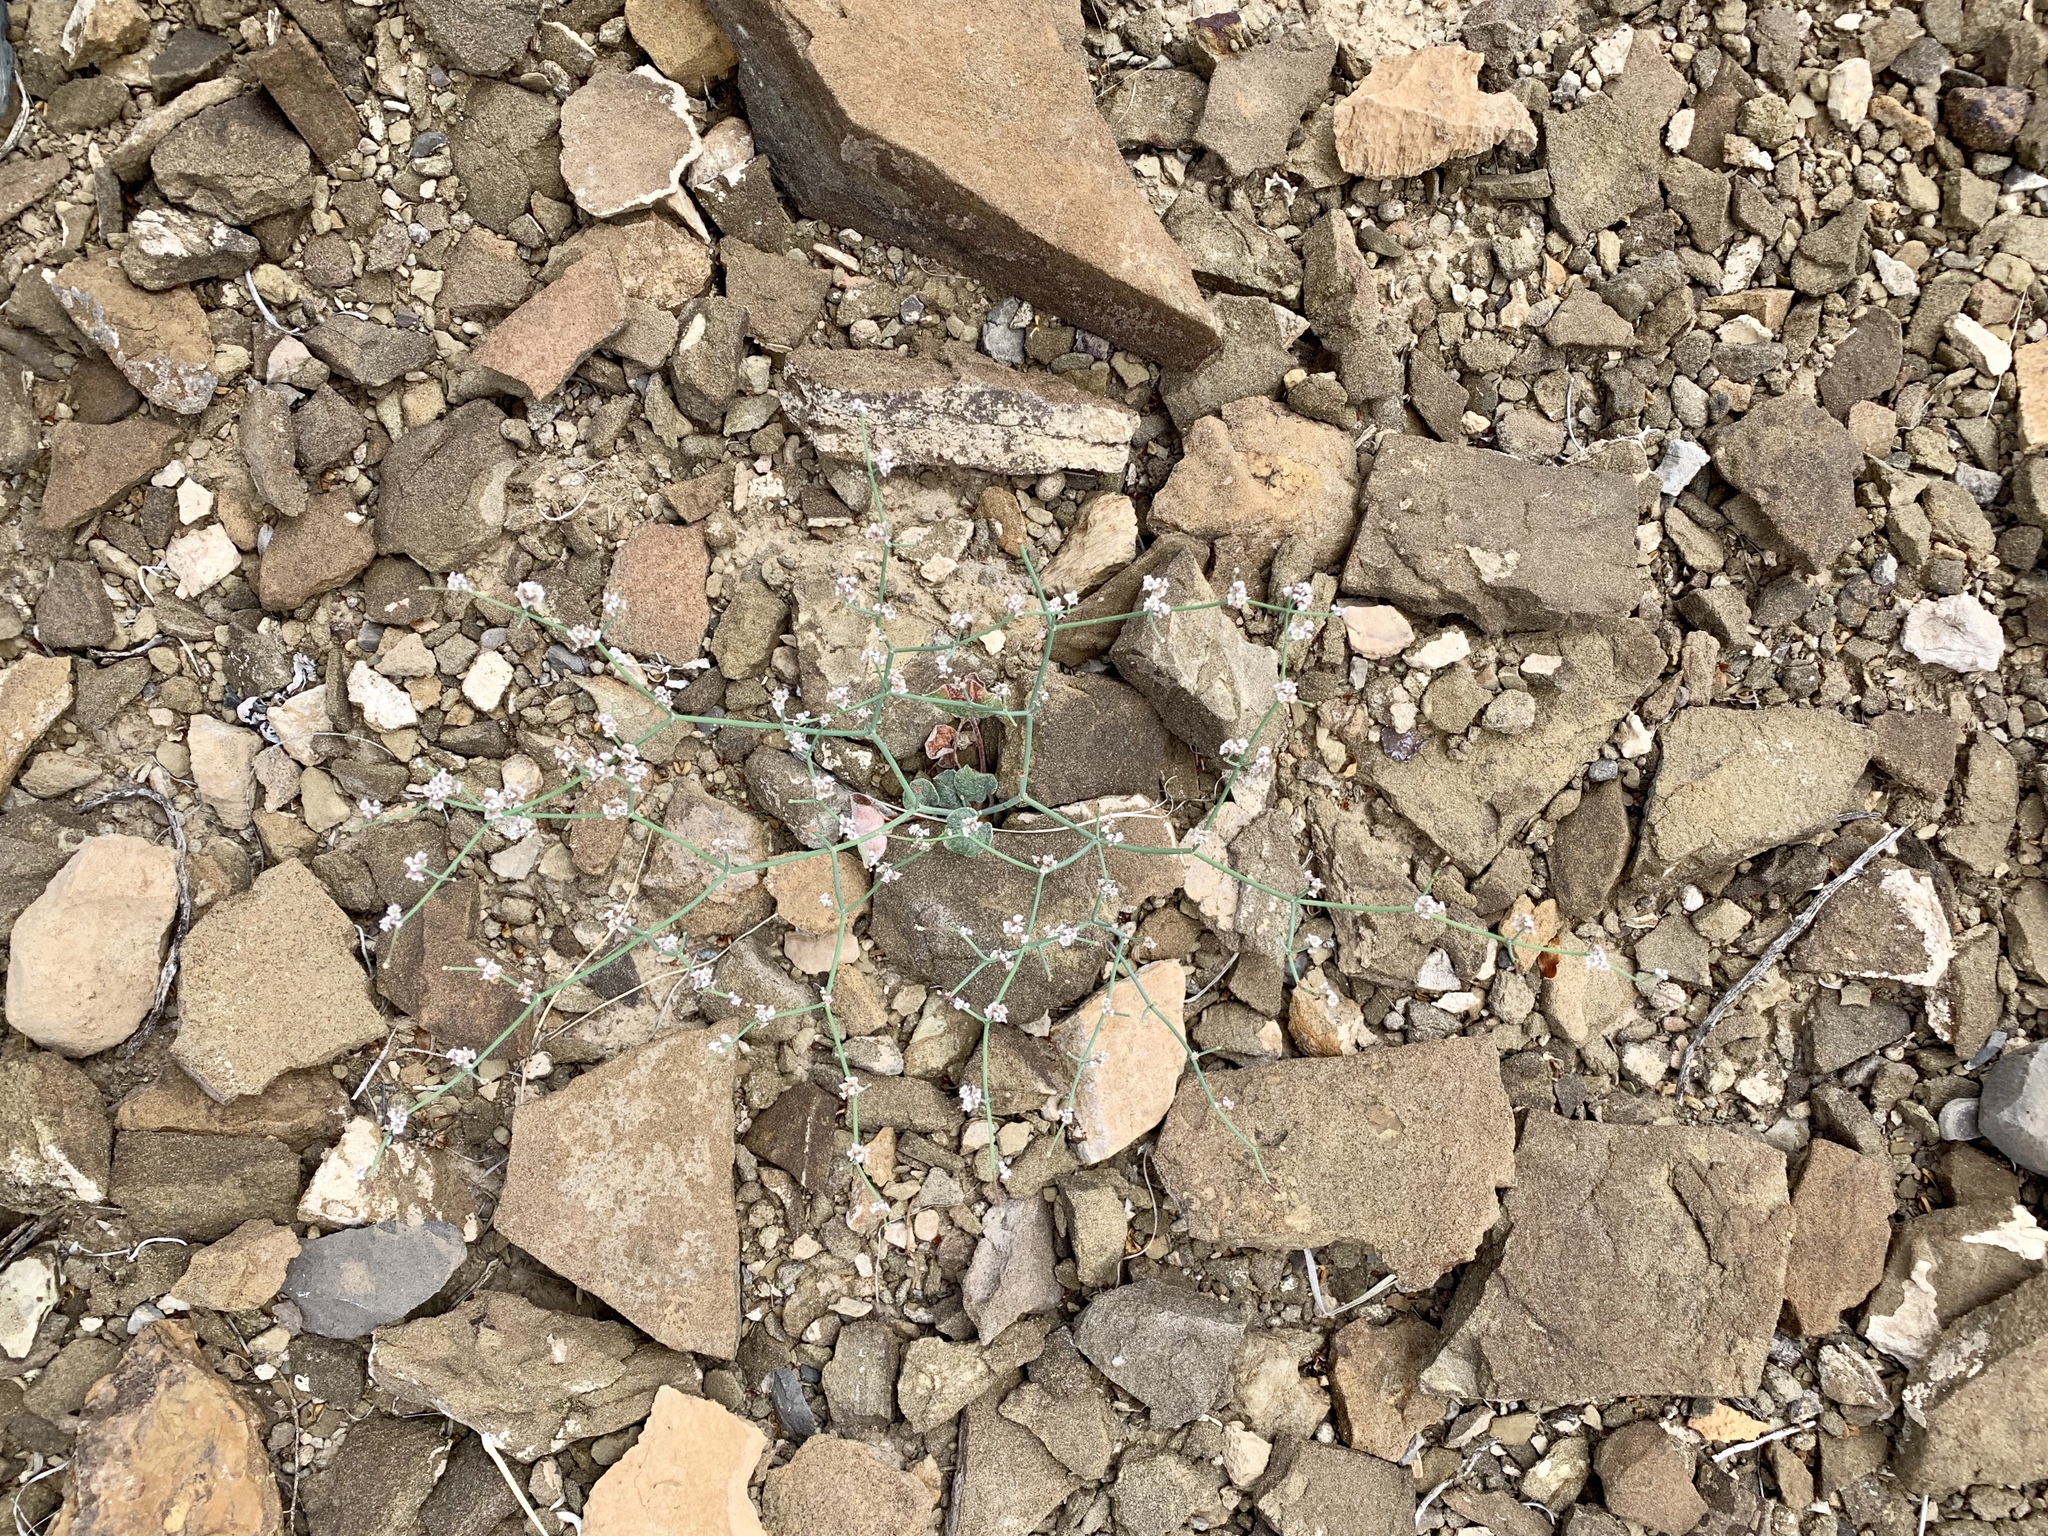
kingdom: Plantae
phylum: Tracheophyta
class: Magnoliopsida
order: Caryophyllales
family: Polygonaceae
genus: Eriogonum
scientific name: Eriogonum rotundifolium
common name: Round-leaf wild buckwheat
